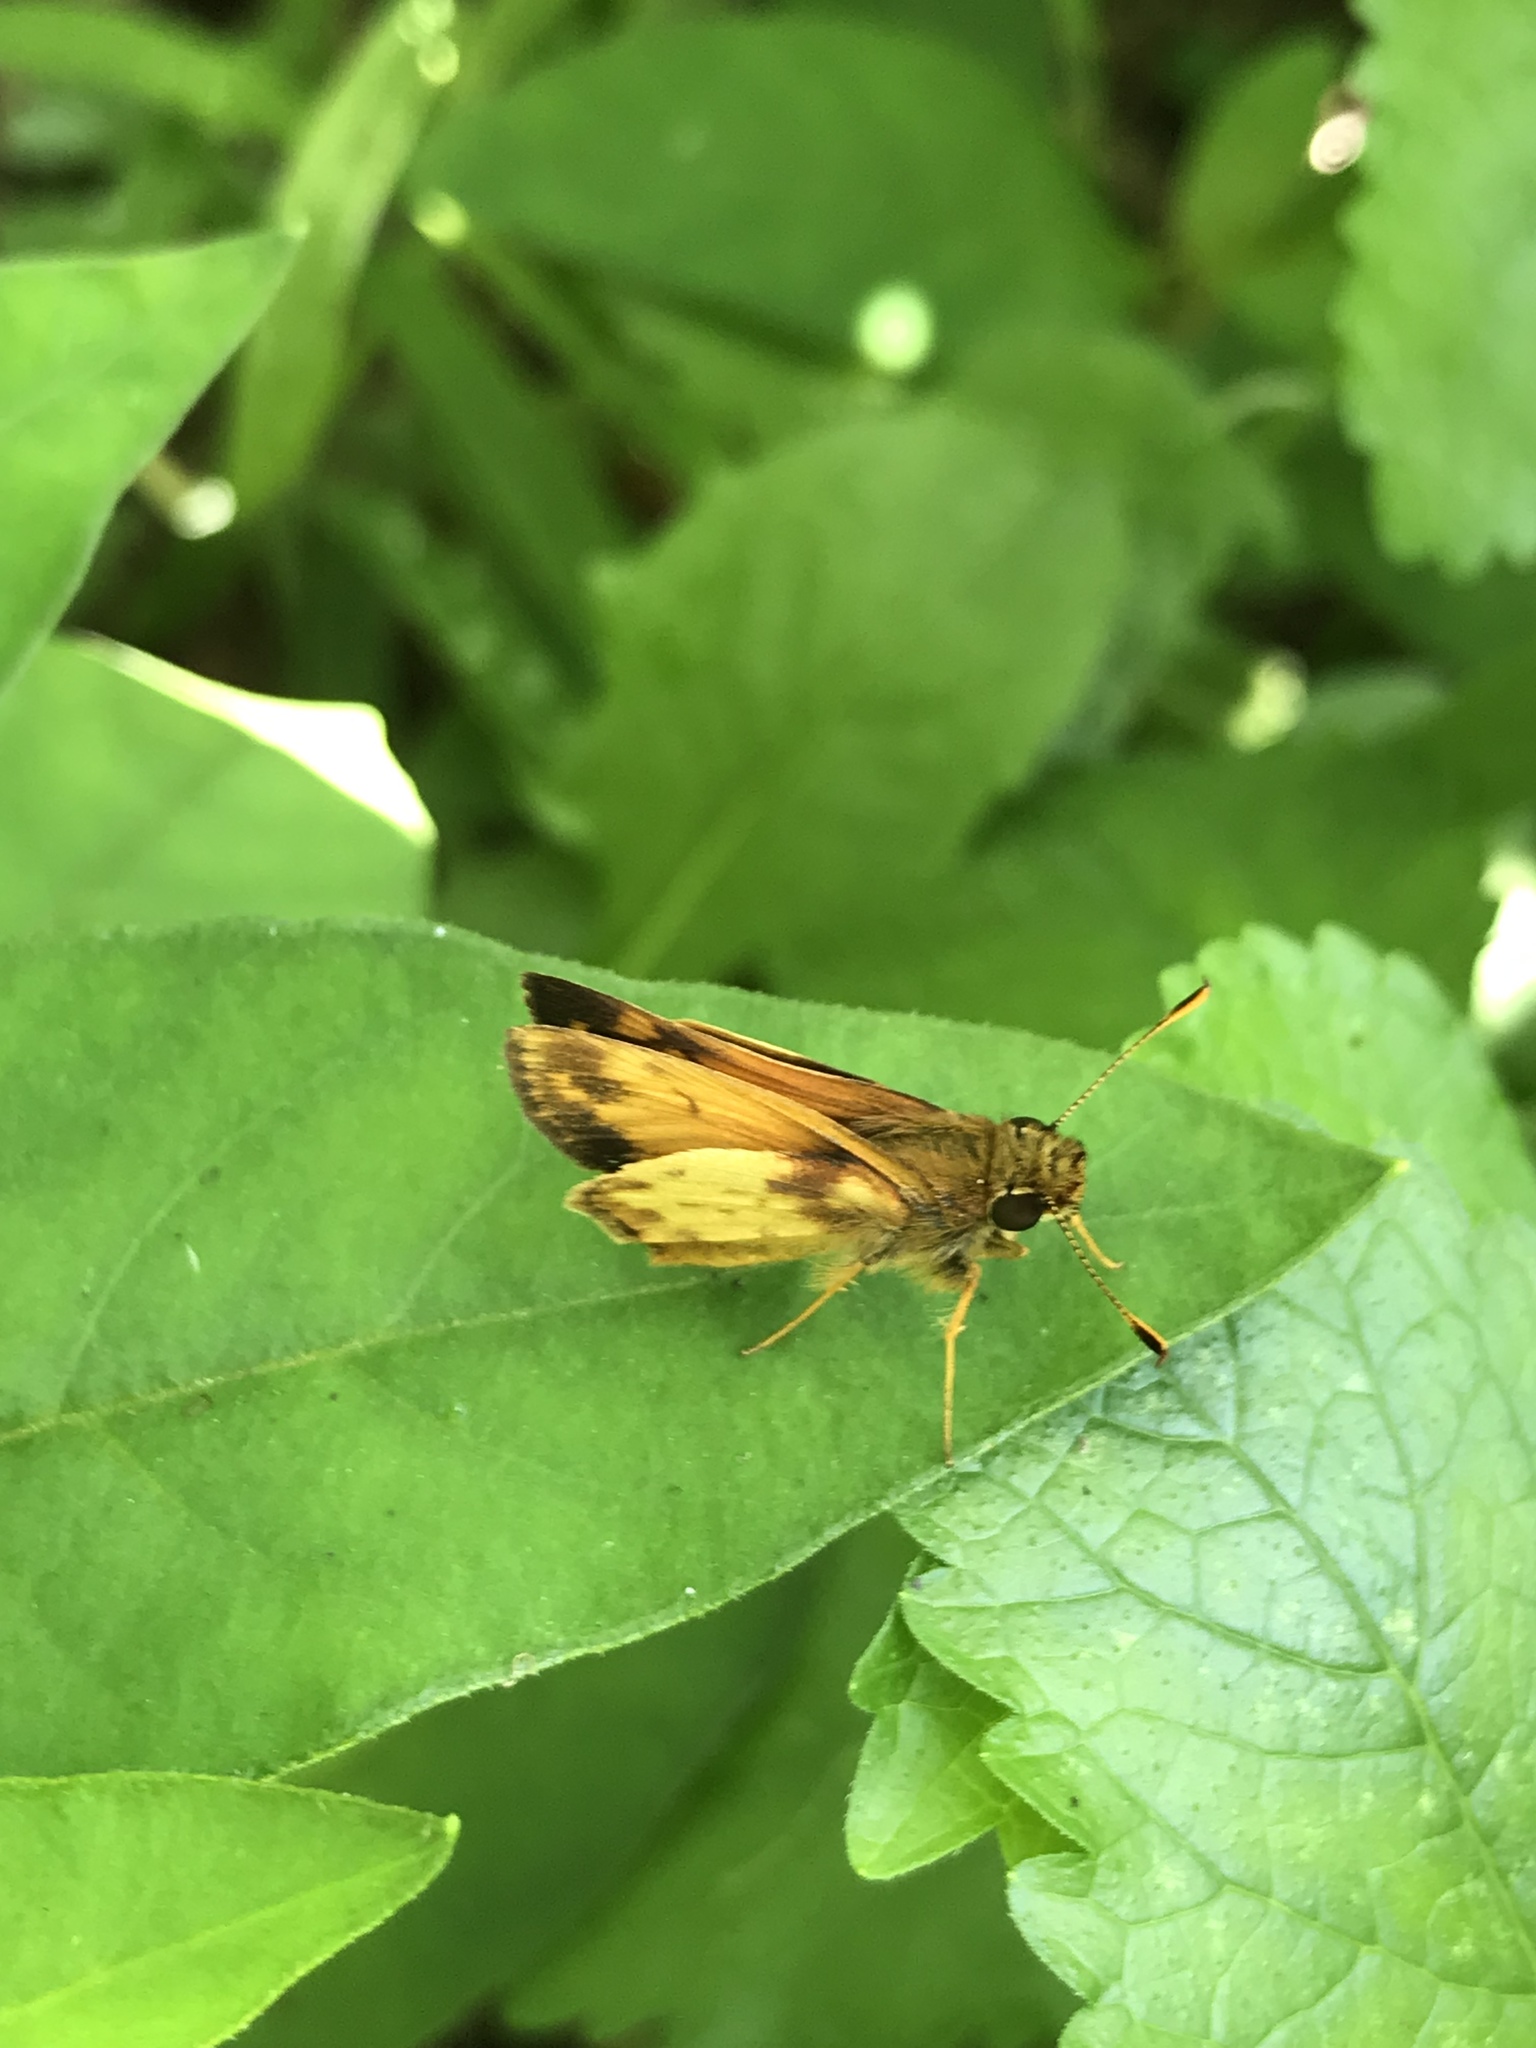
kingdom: Animalia
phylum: Arthropoda
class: Insecta
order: Lepidoptera
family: Hesperiidae
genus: Lon
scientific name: Lon zabulon
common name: Zabulon skipper
